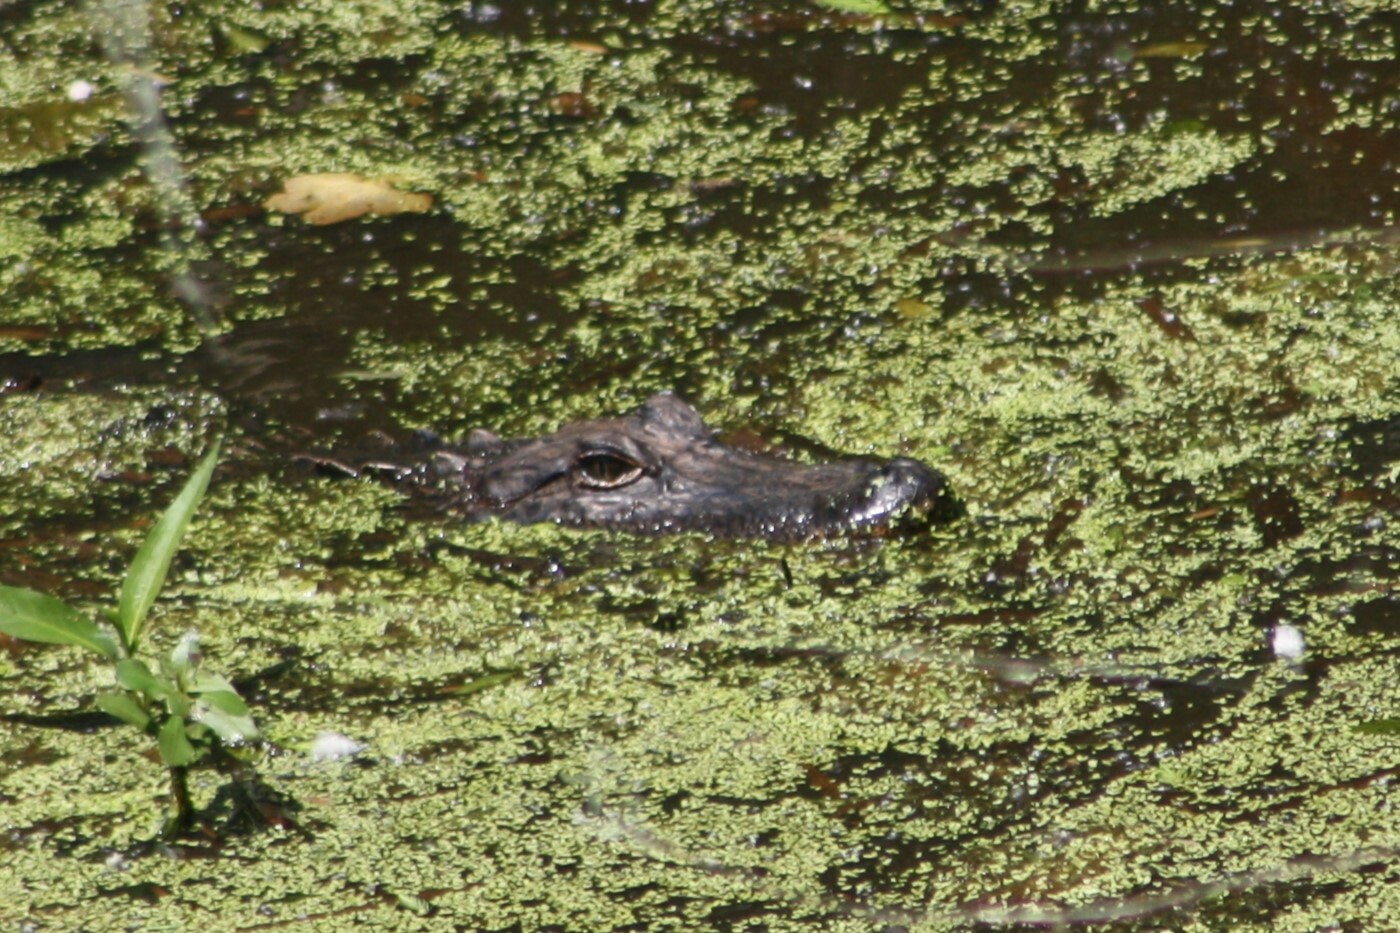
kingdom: Animalia
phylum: Chordata
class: Crocodylia
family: Alligatoridae
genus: Alligator
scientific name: Alligator mississippiensis
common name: American alligator
